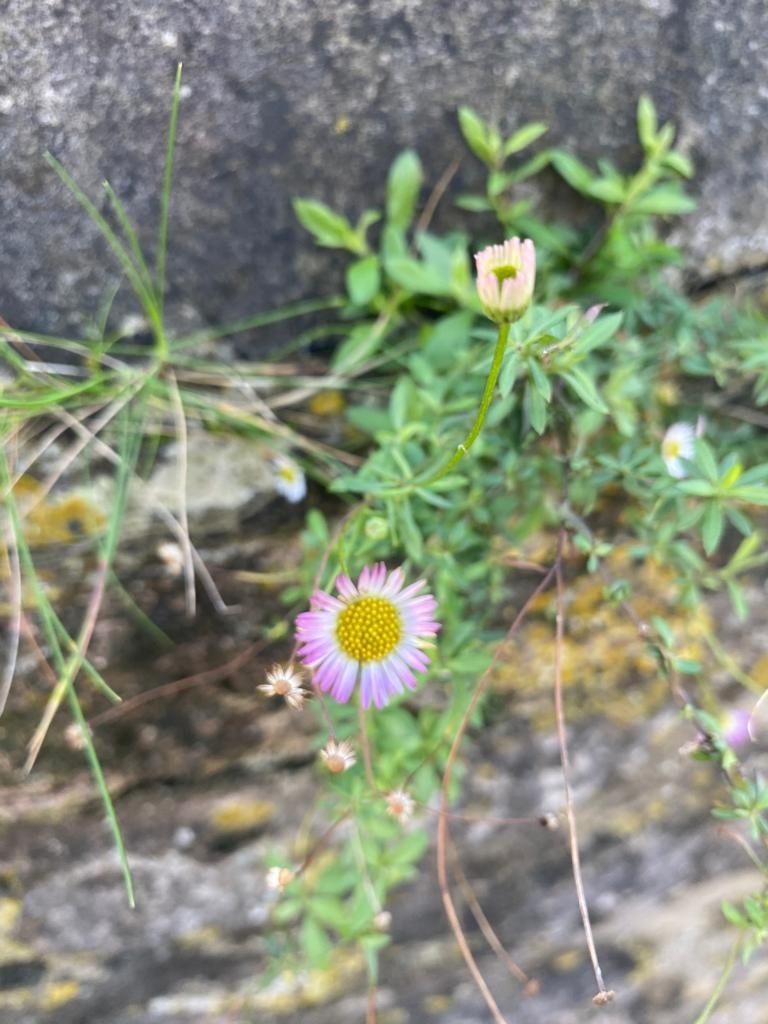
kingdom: Plantae
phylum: Tracheophyta
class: Magnoliopsida
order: Asterales
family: Asteraceae
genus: Erigeron
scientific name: Erigeron karvinskianus
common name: Mexican fleabane
